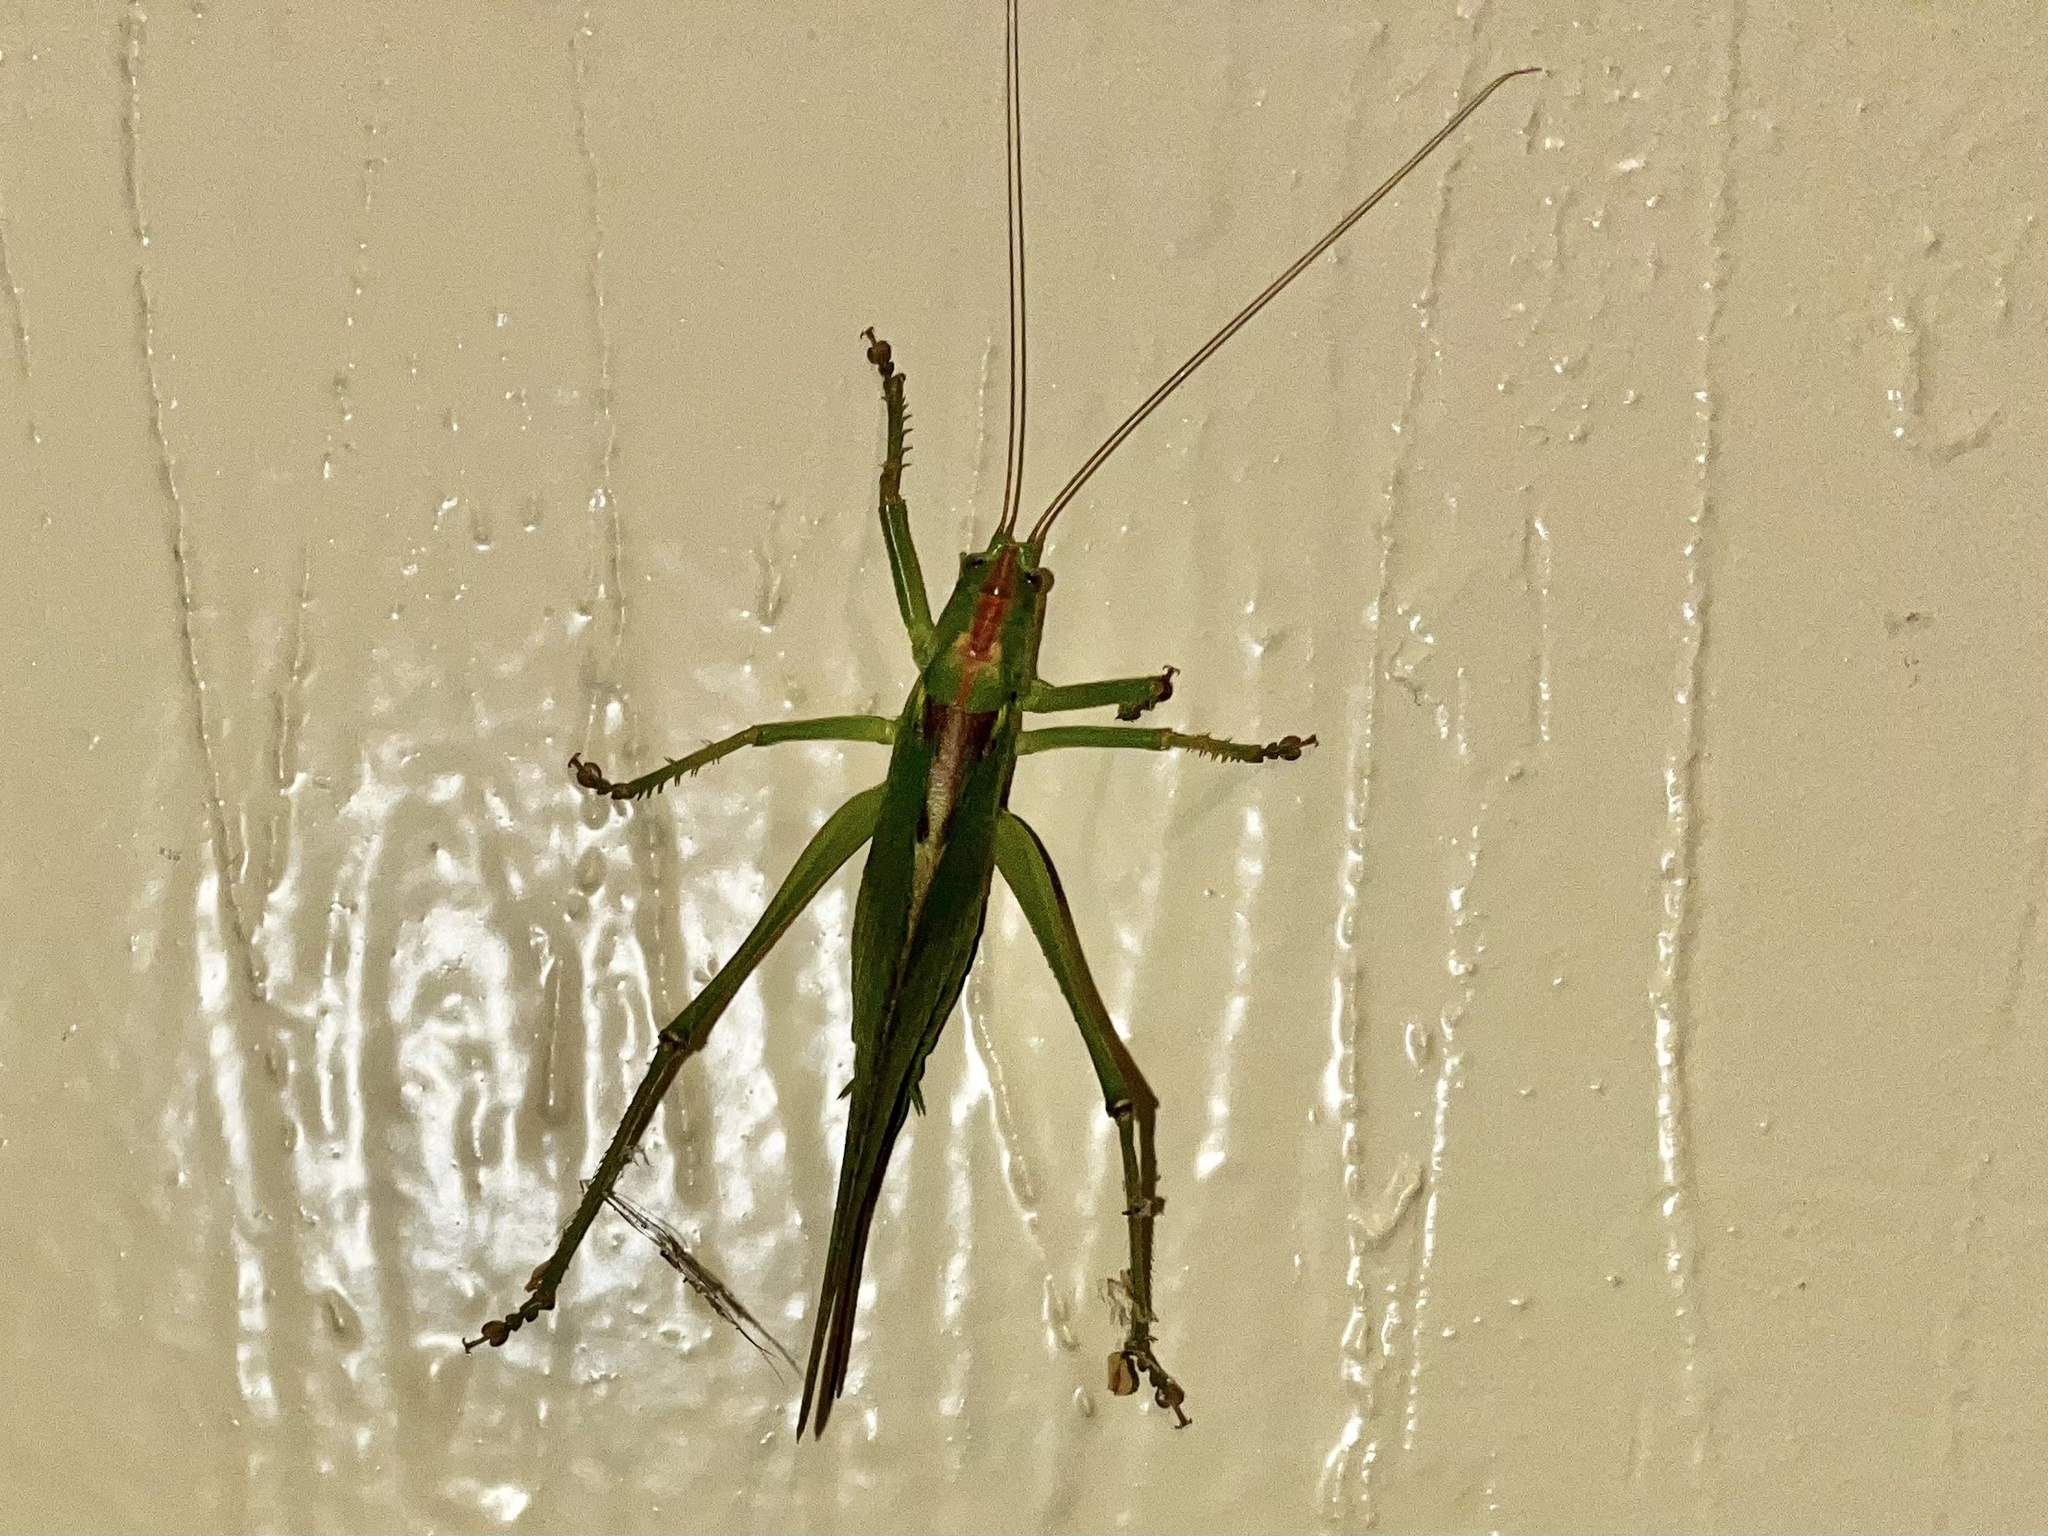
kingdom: Animalia
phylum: Arthropoda
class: Insecta
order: Orthoptera
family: Tettigoniidae
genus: Tettigonia
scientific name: Tettigonia viridissima
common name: Great green bush-cricket
